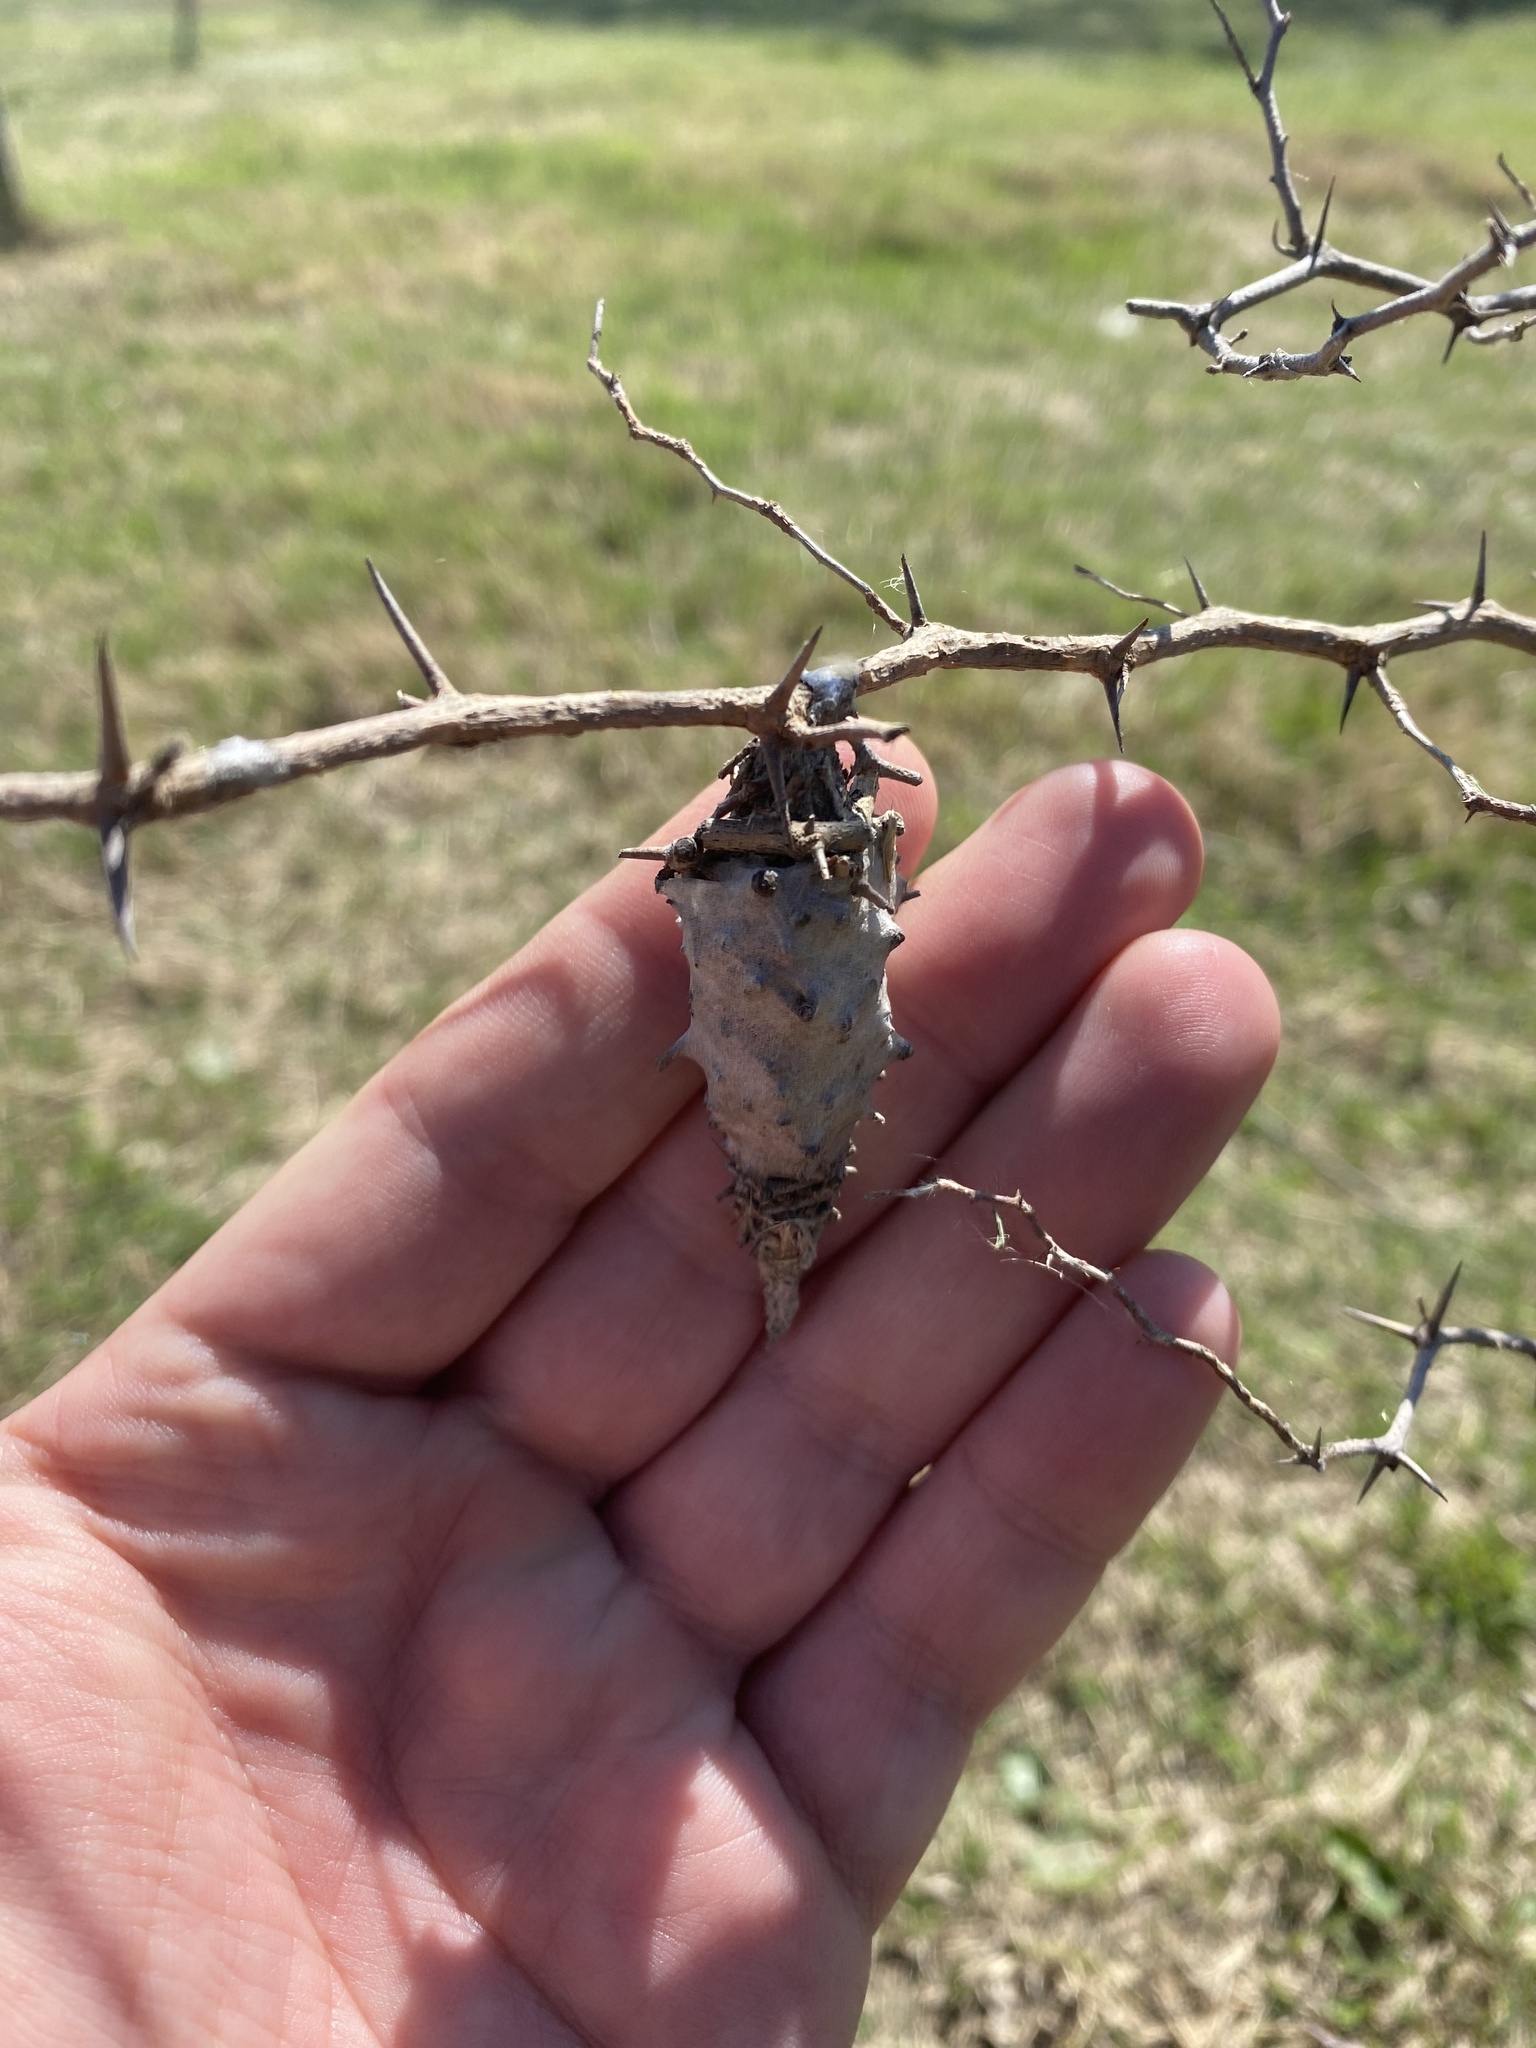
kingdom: Animalia
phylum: Arthropoda
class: Insecta
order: Lepidoptera
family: Psychidae
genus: Oiketicus
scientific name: Oiketicus
